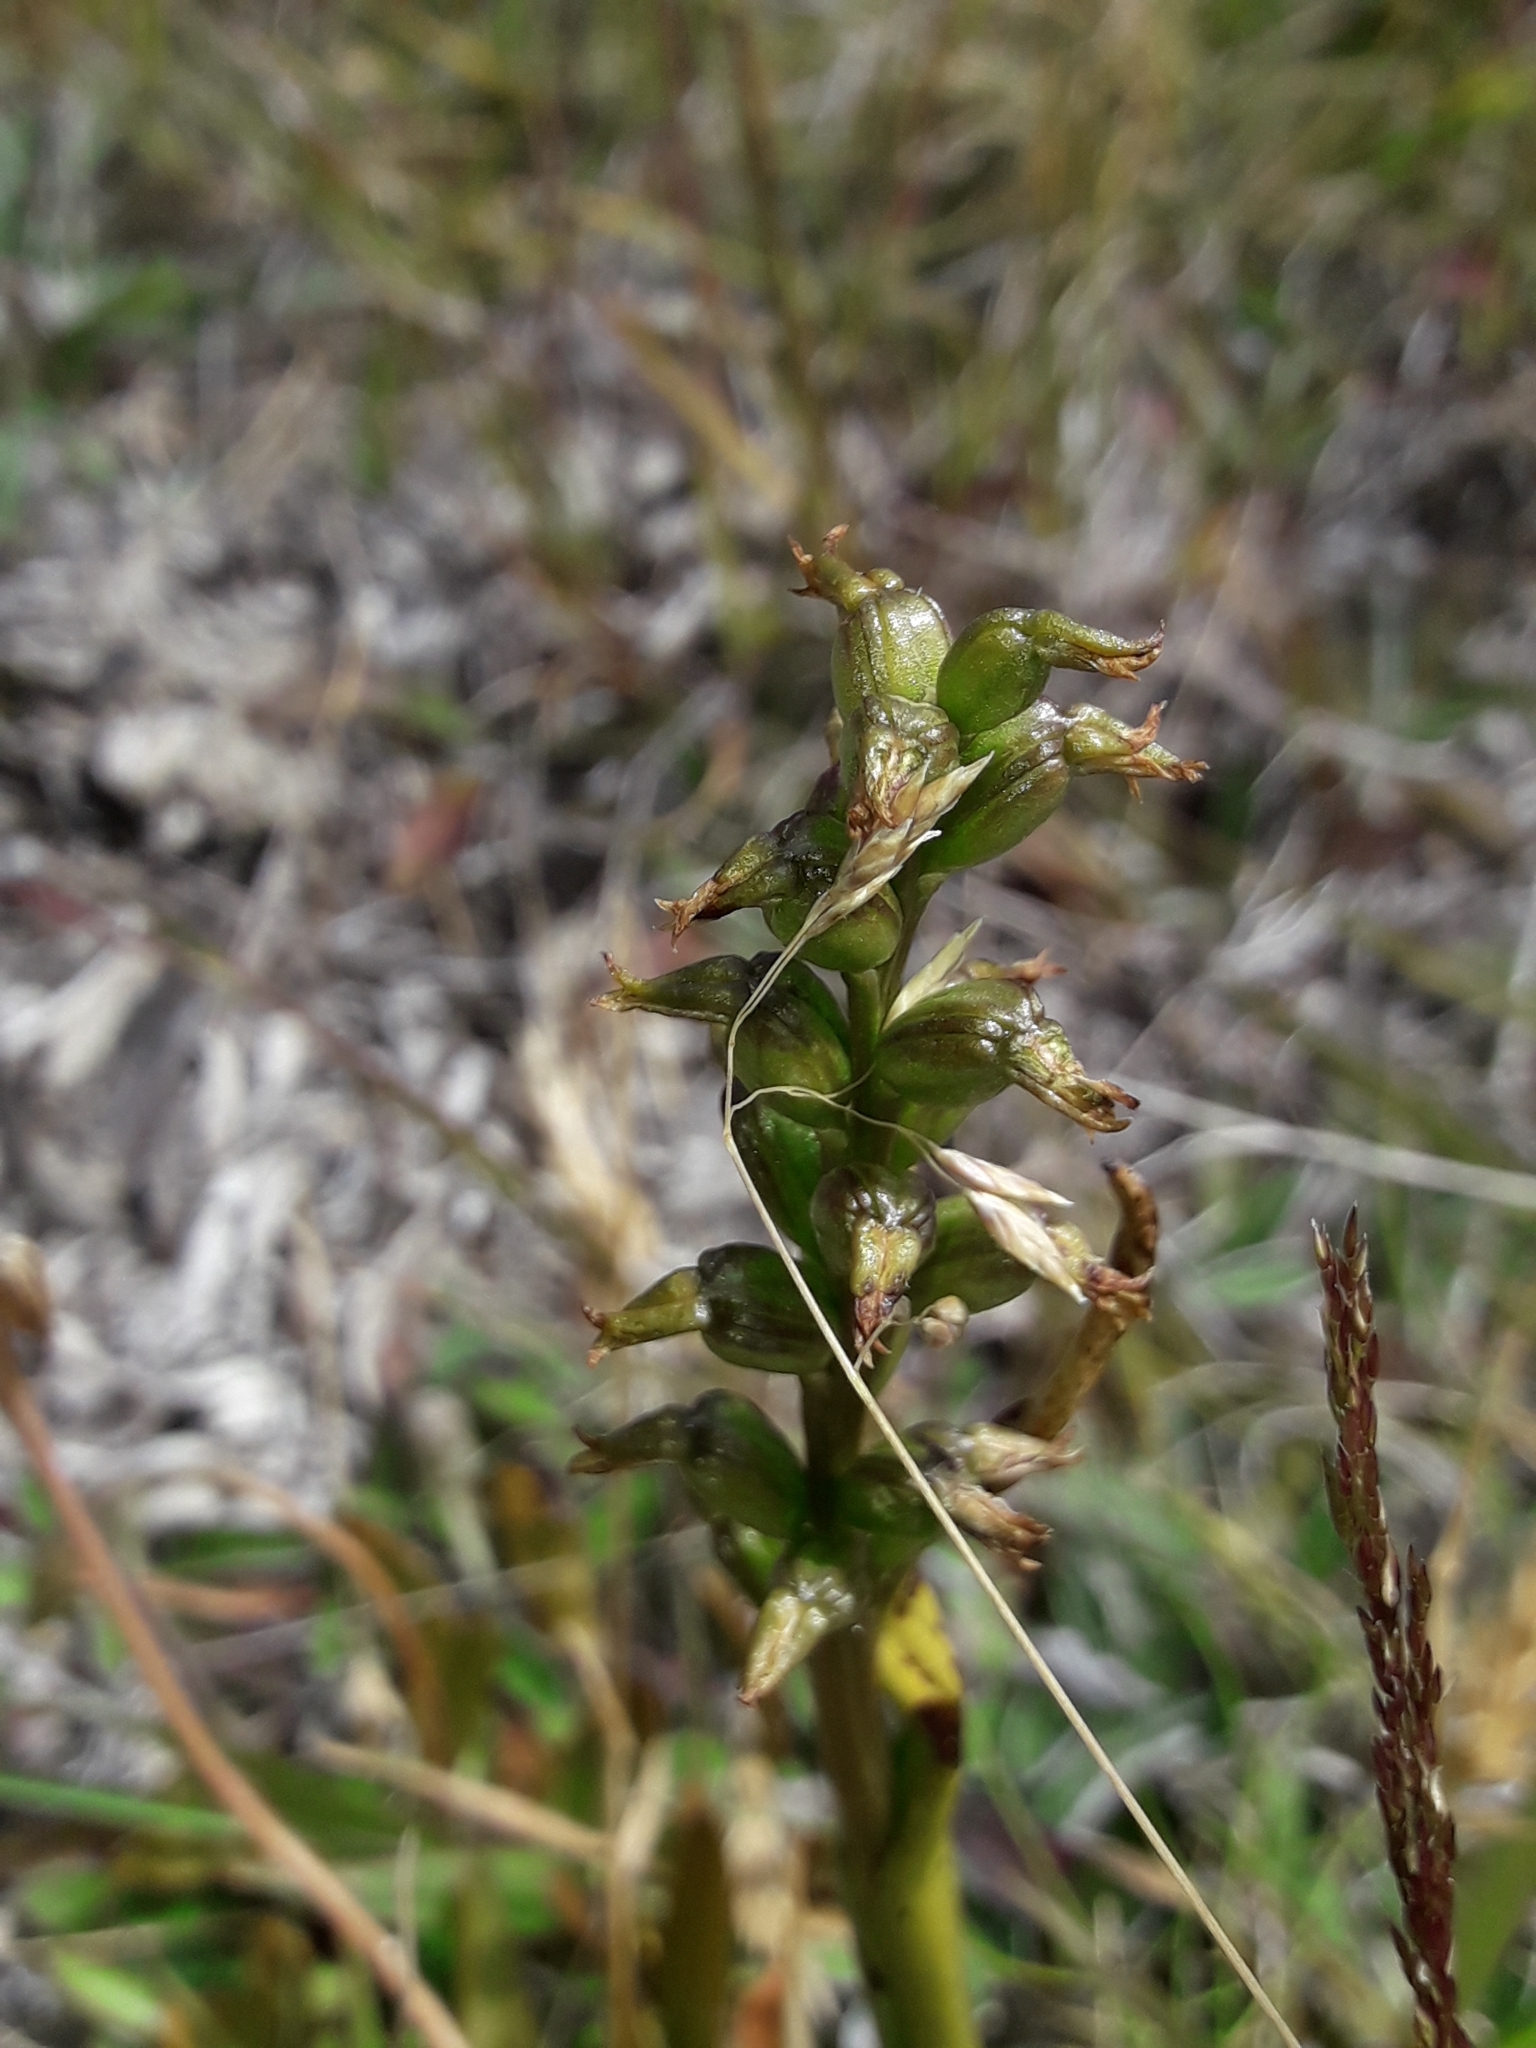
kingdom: Plantae
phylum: Tracheophyta
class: Liliopsida
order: Asparagales
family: Orchidaceae
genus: Prasophyllum
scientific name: Prasophyllum colensoi
